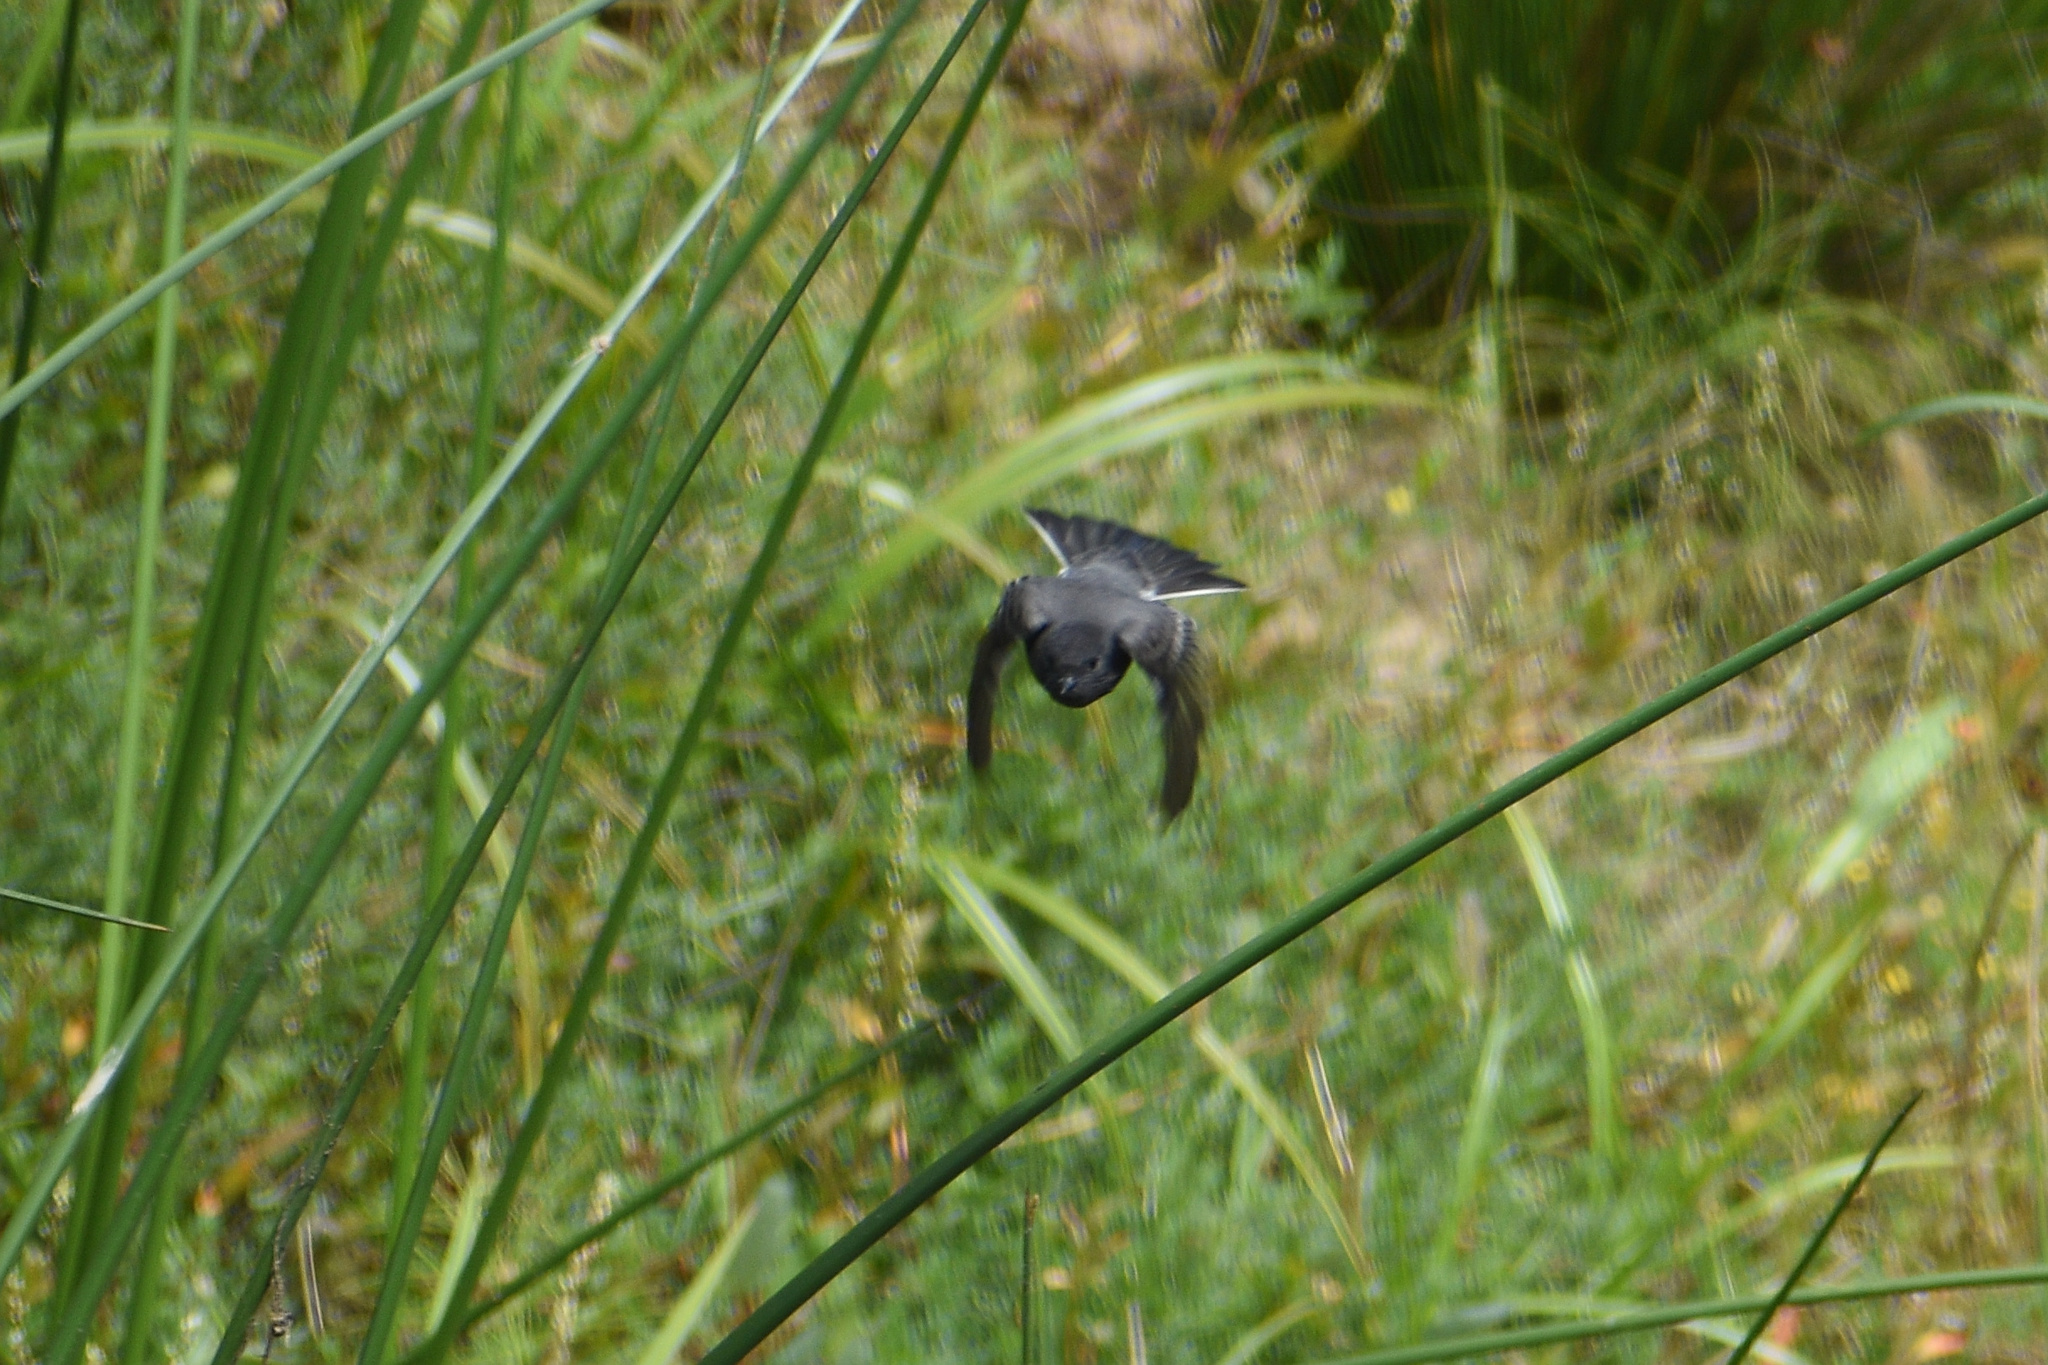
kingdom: Animalia
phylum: Chordata
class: Aves
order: Passeriformes
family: Tyrannidae
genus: Sayornis
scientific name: Sayornis nigricans
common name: Black phoebe
